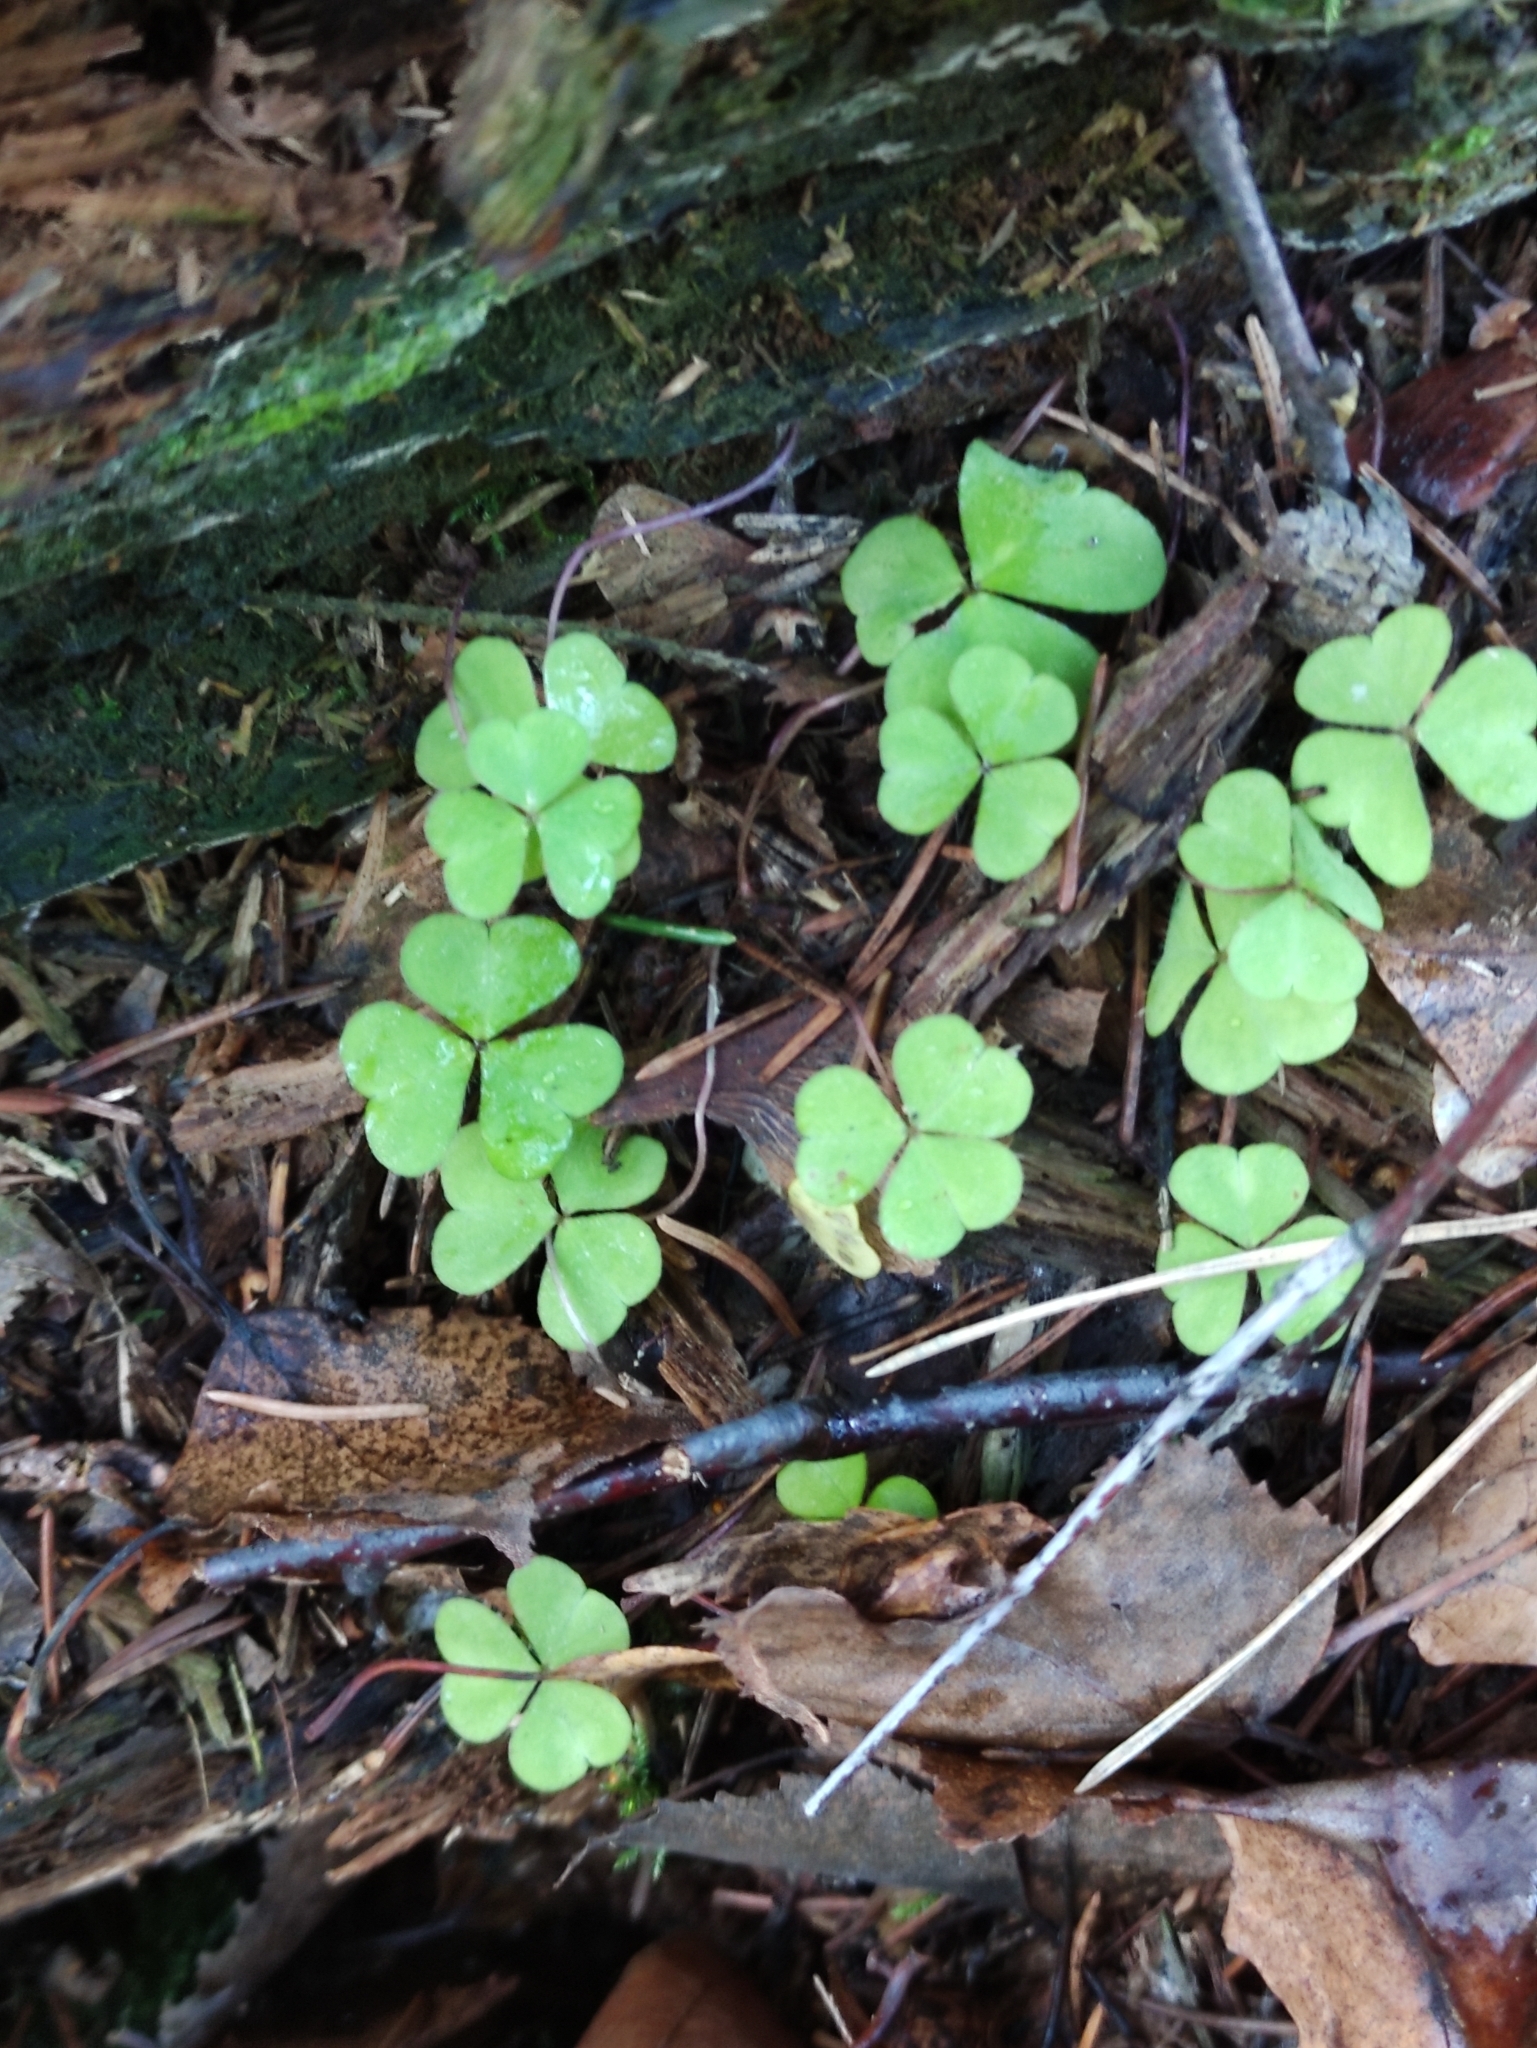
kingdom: Plantae
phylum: Tracheophyta
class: Magnoliopsida
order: Oxalidales
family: Oxalidaceae
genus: Oxalis
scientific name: Oxalis acetosella
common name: Wood-sorrel
